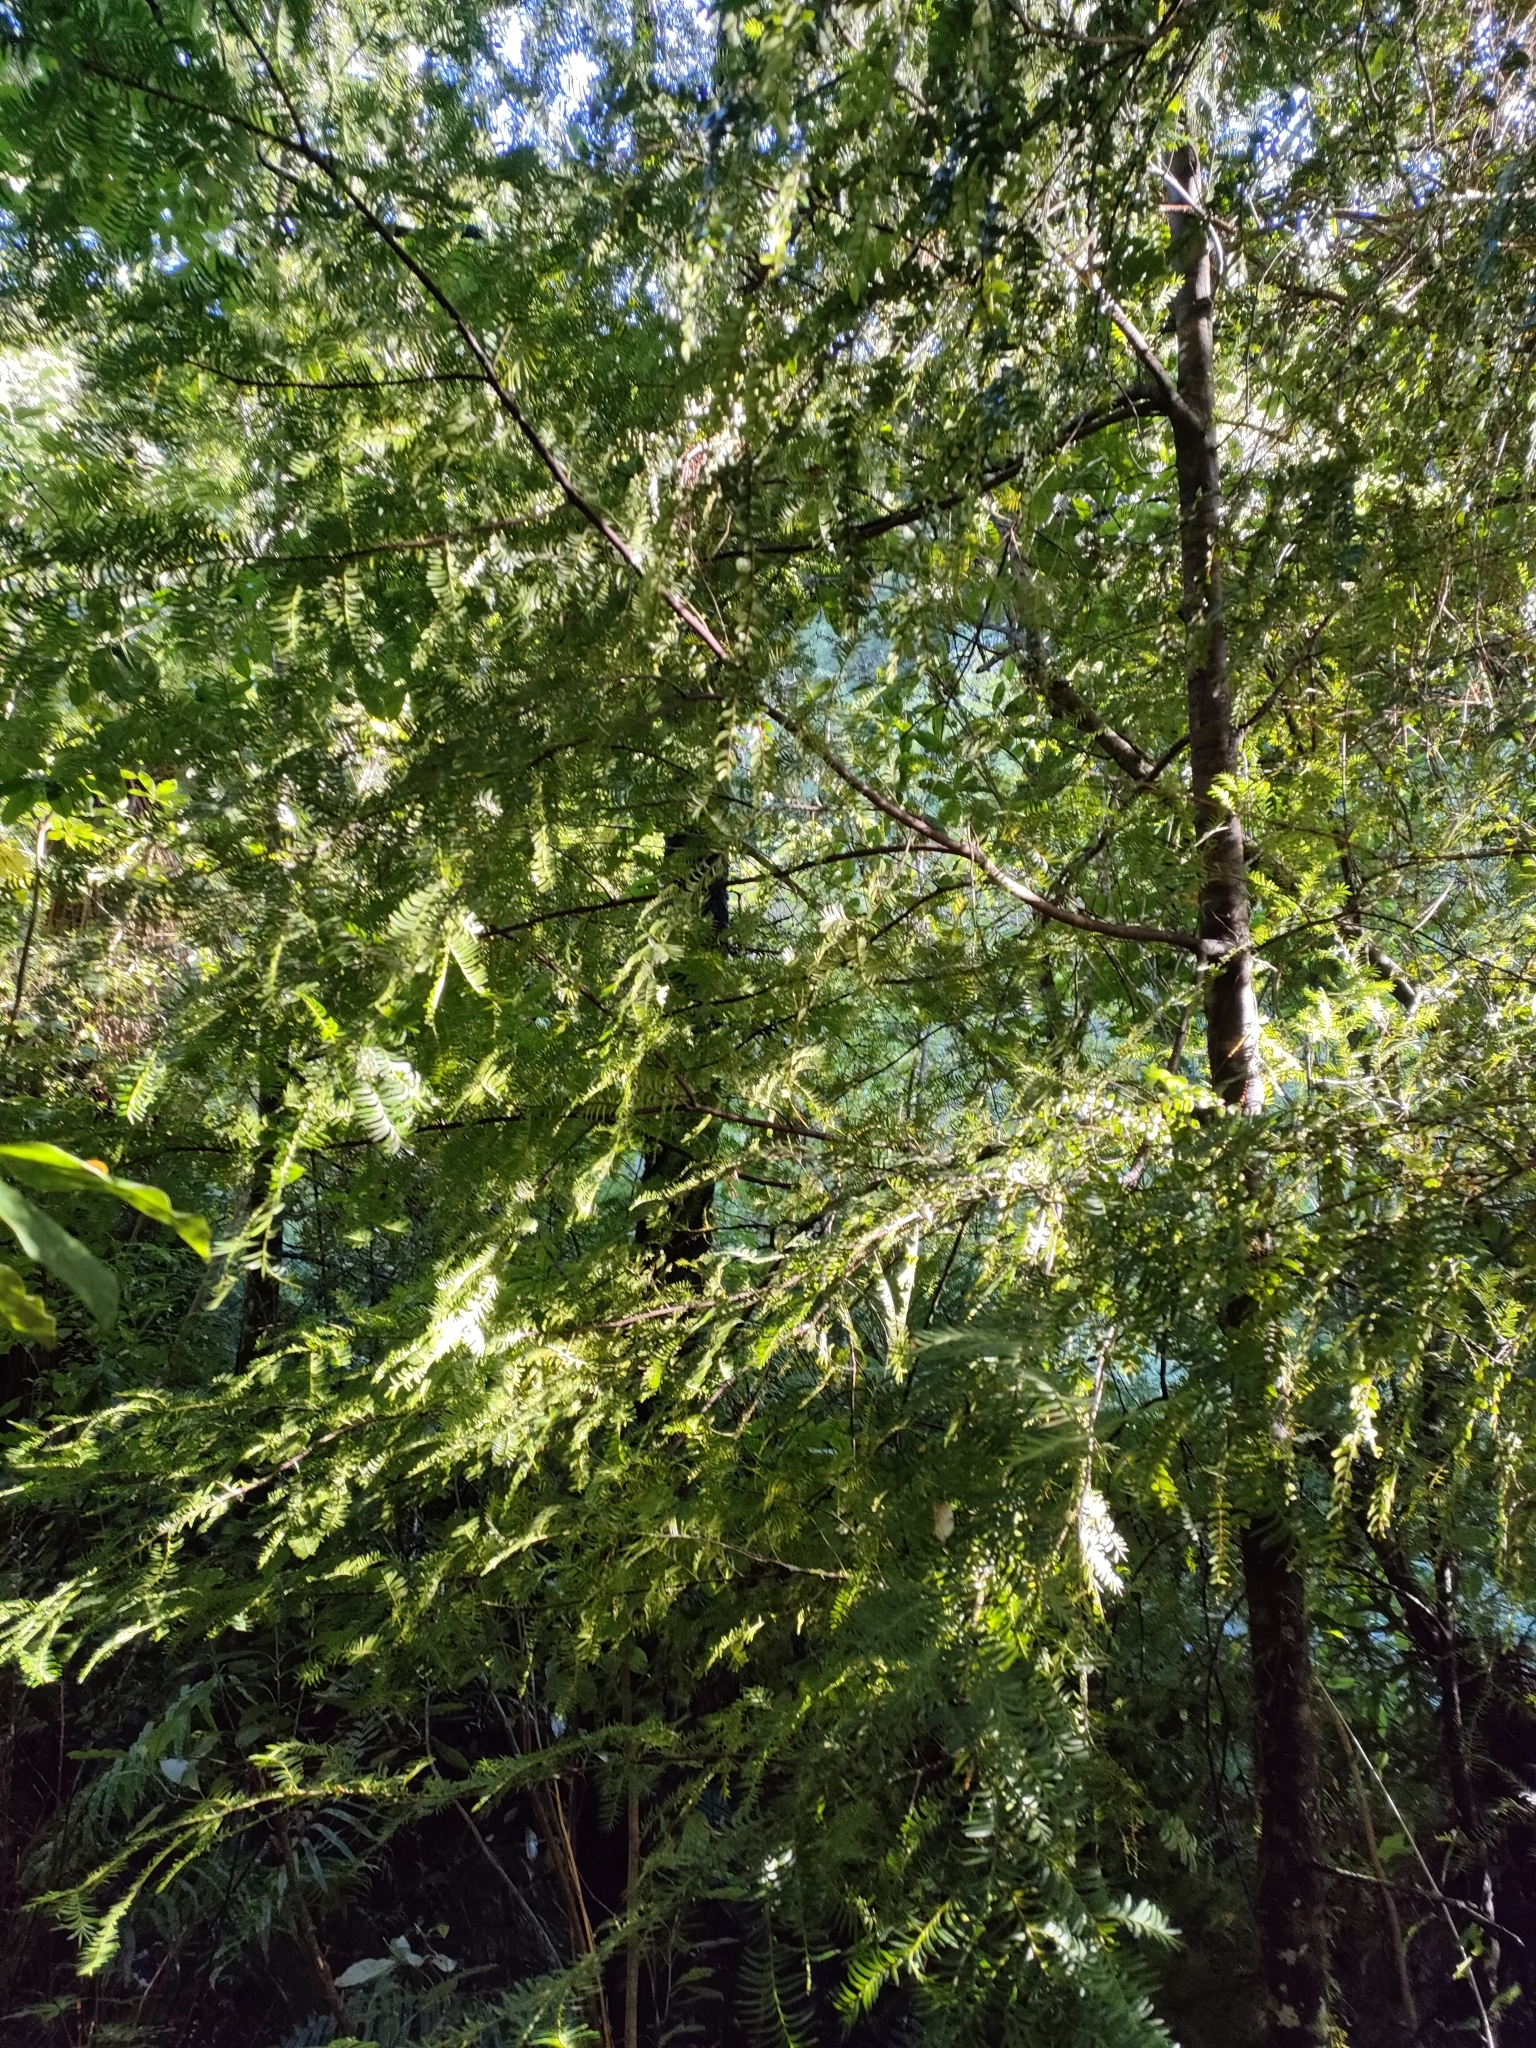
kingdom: Plantae
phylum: Tracheophyta
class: Pinopsida
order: Pinales
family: Podocarpaceae
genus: Prumnopitys
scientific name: Prumnopitys ferruginea
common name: Brown pine
